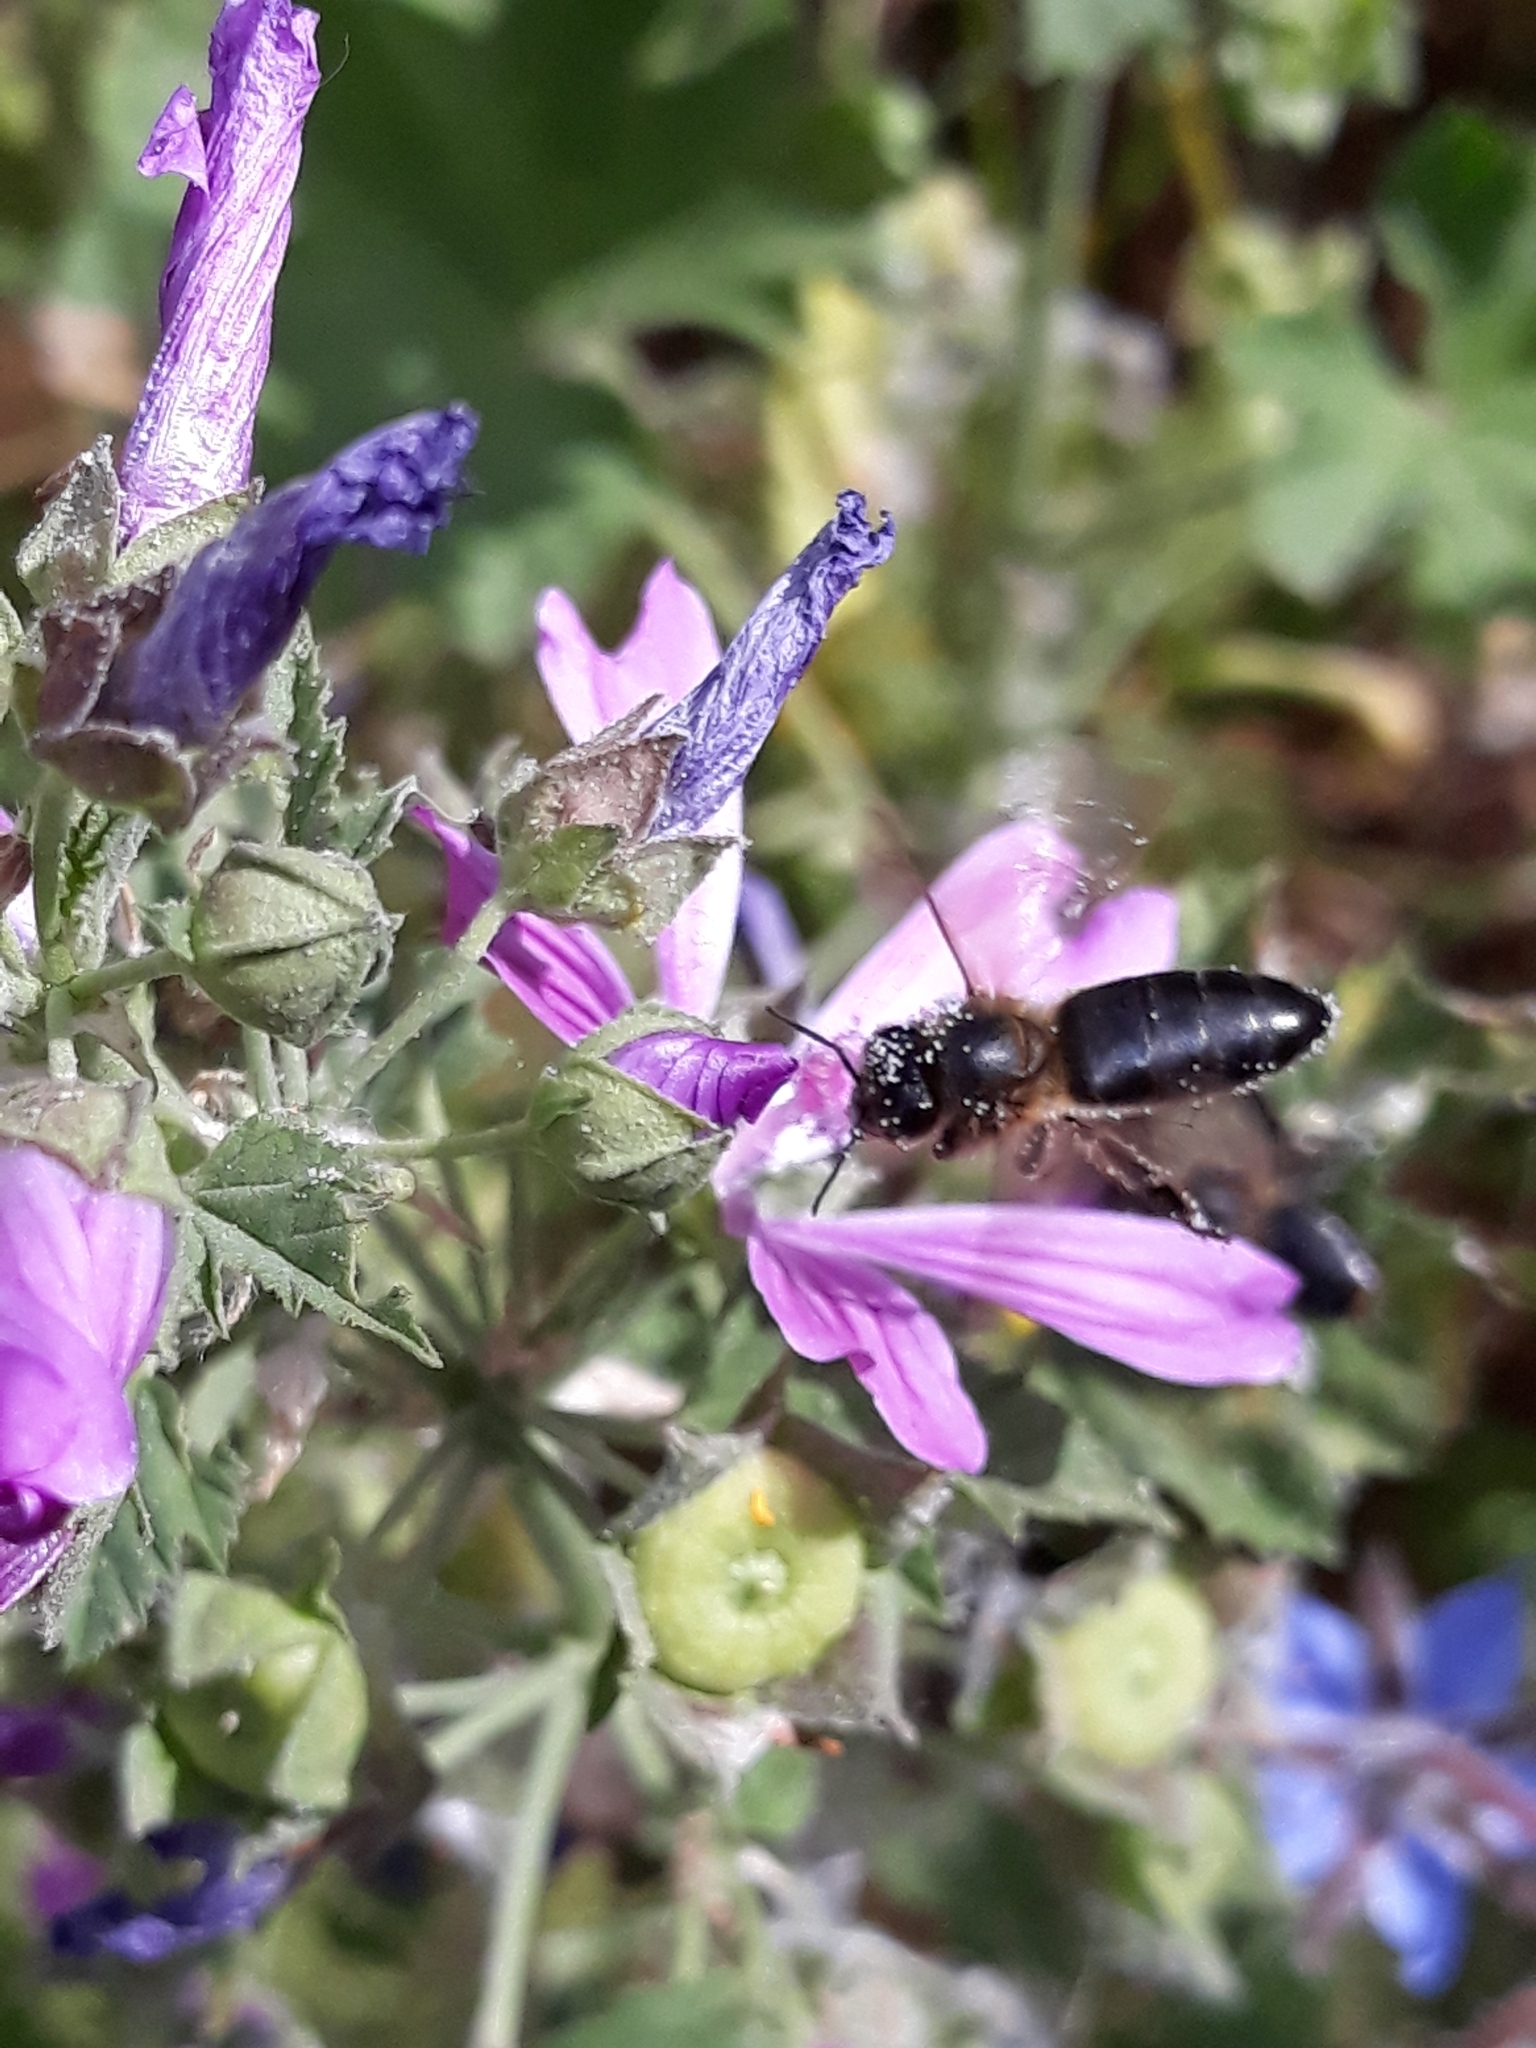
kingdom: Animalia
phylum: Arthropoda
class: Insecta
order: Hymenoptera
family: Apidae
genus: Apis
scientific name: Apis mellifera
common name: Honey bee
